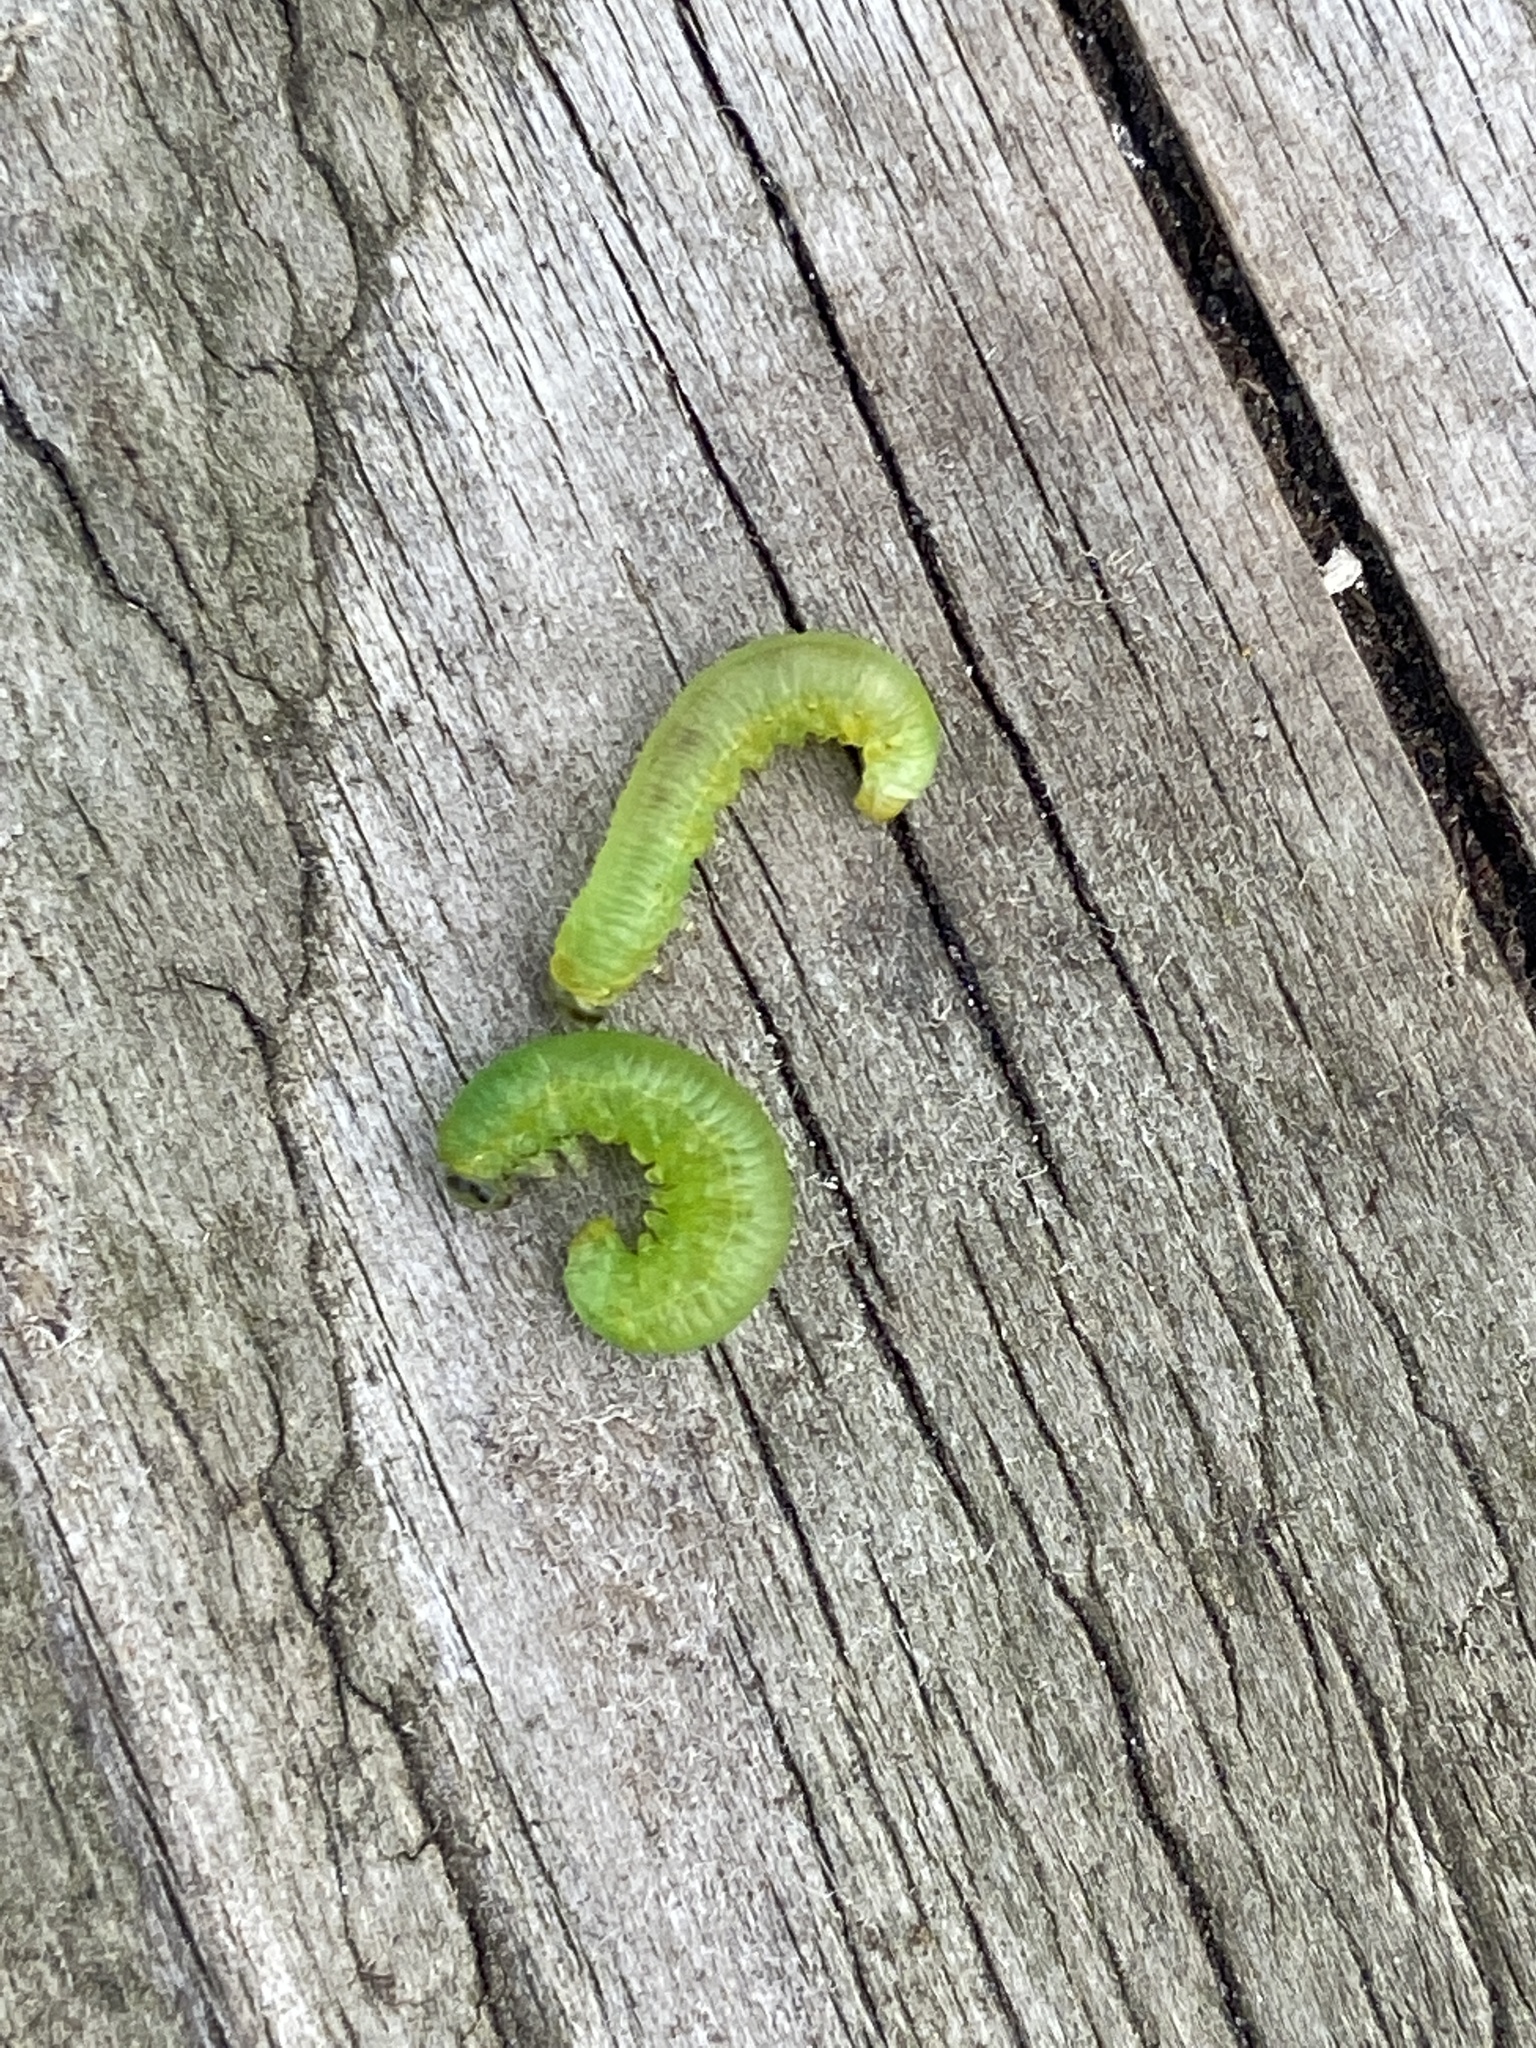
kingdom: Animalia
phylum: Arthropoda
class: Insecta
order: Hymenoptera
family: Tenthredinidae
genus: Pristiphora
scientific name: Pristiphora appendiculata
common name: Tenthredid wasp
